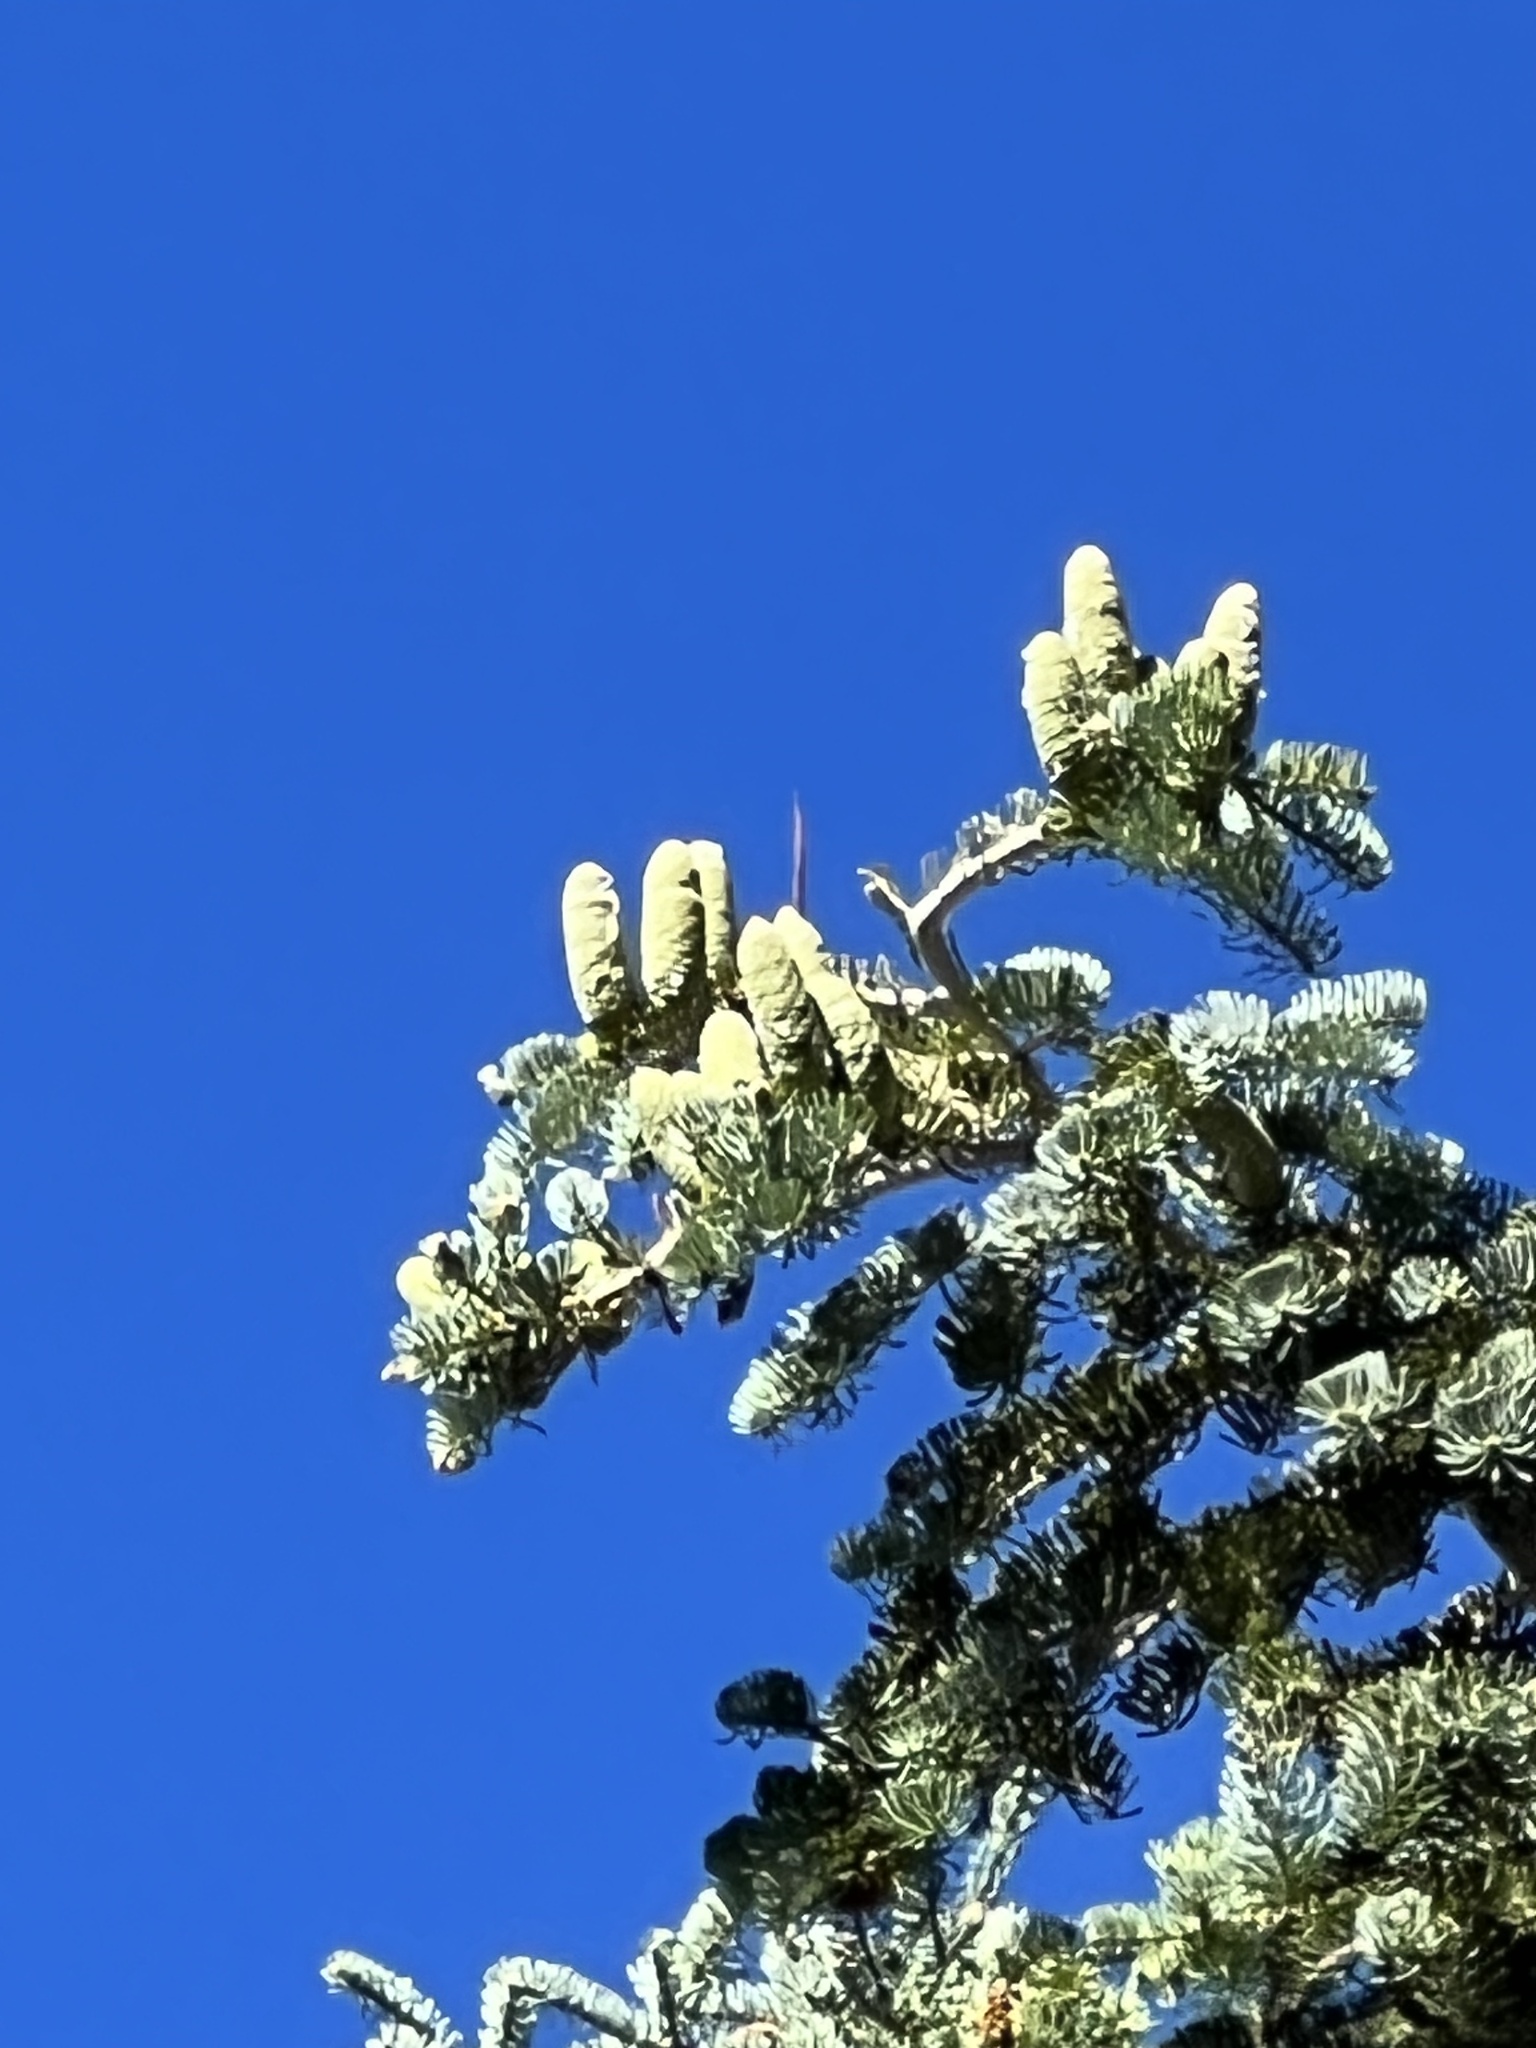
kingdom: Plantae
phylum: Tracheophyta
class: Pinopsida
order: Pinales
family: Pinaceae
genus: Abies
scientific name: Abies concolor
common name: Colorado fir
